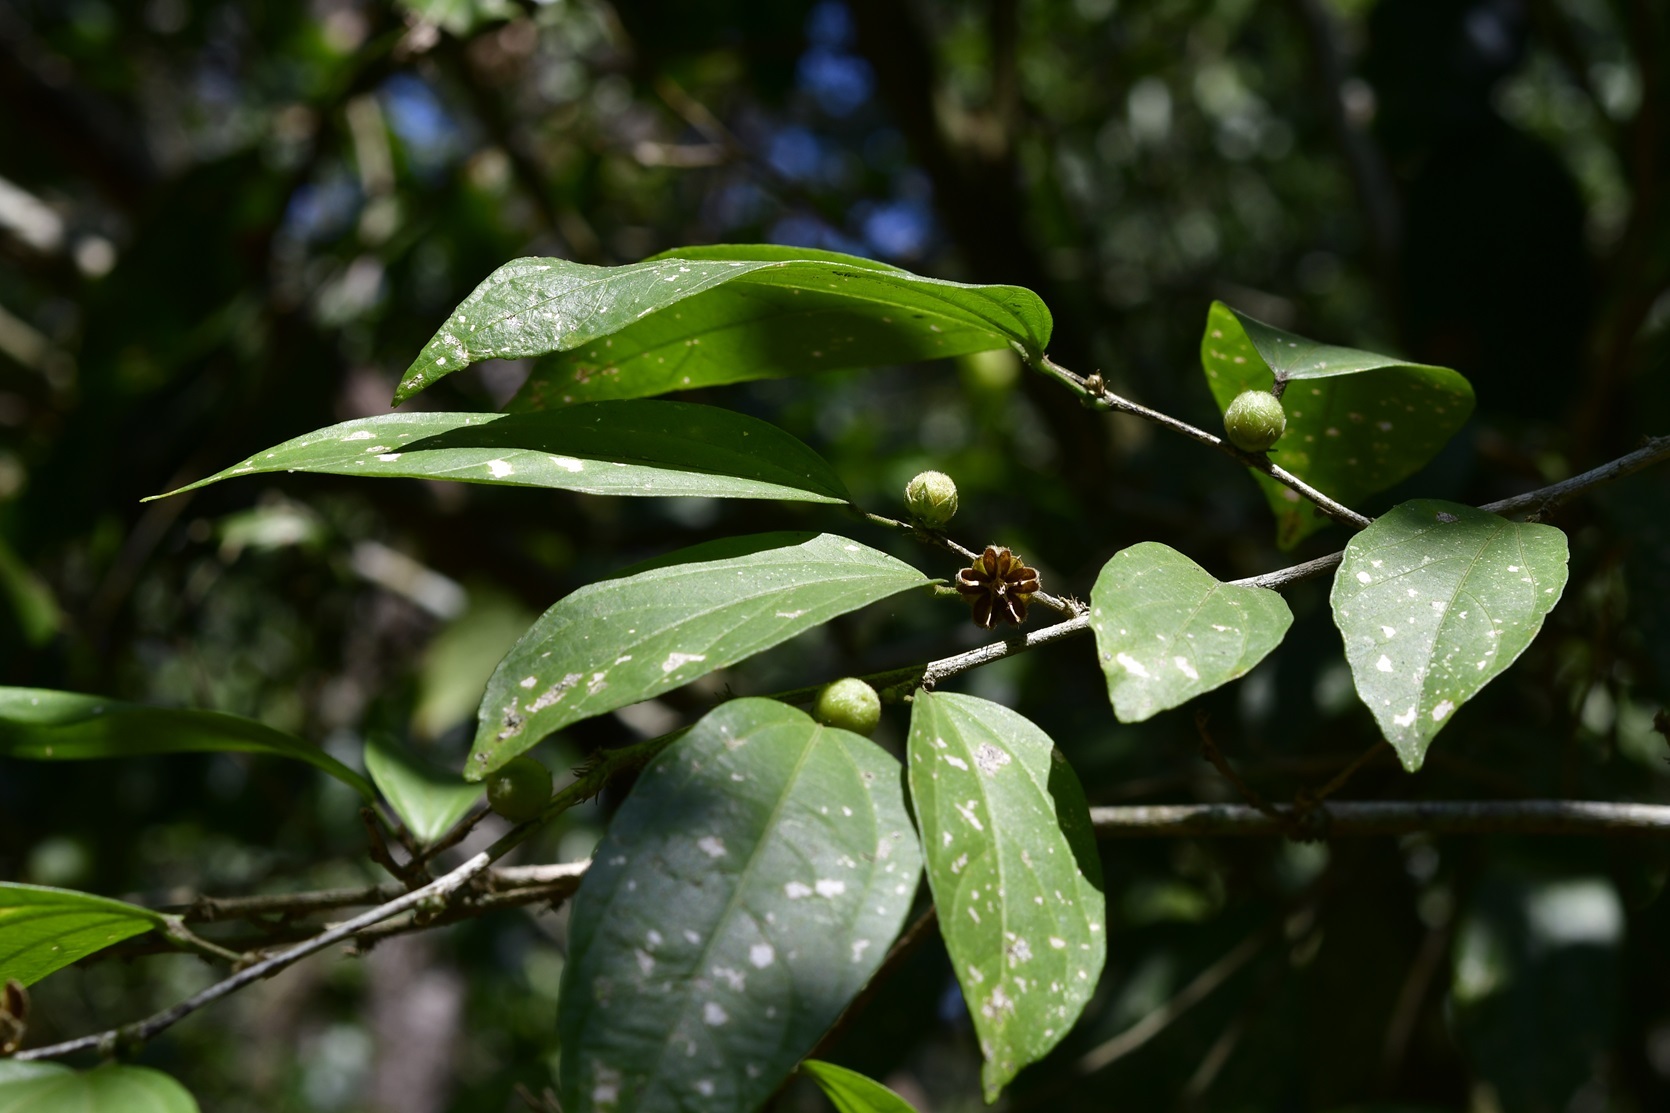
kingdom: Plantae
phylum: Tracheophyta
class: Magnoliopsida
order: Malvales
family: Malvaceae
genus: Hibiscus
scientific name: Hibiscus purpusii
